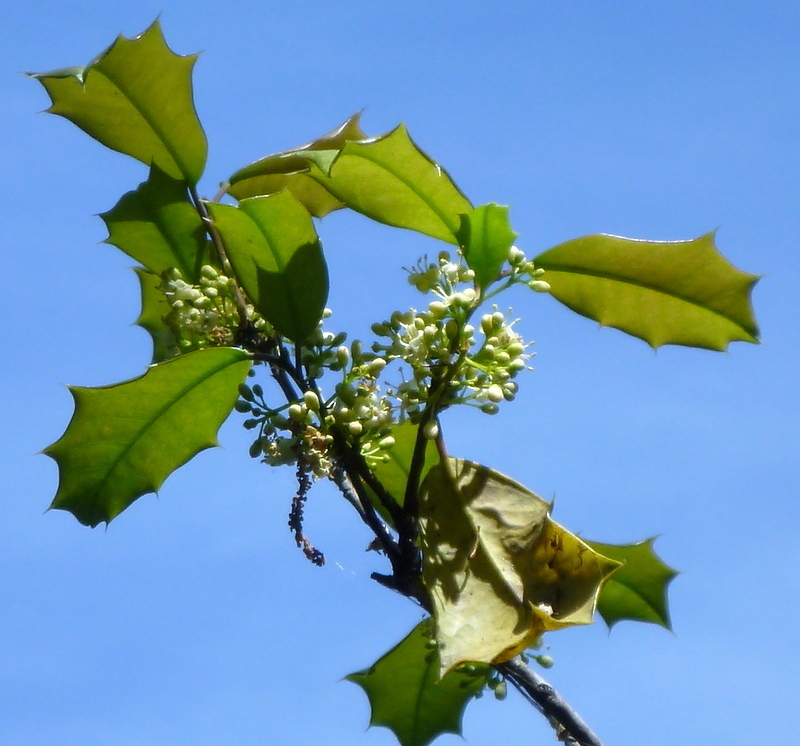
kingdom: Plantae
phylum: Tracheophyta
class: Magnoliopsida
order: Aquifoliales
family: Aquifoliaceae
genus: Ilex
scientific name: Ilex opaca
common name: American holly
